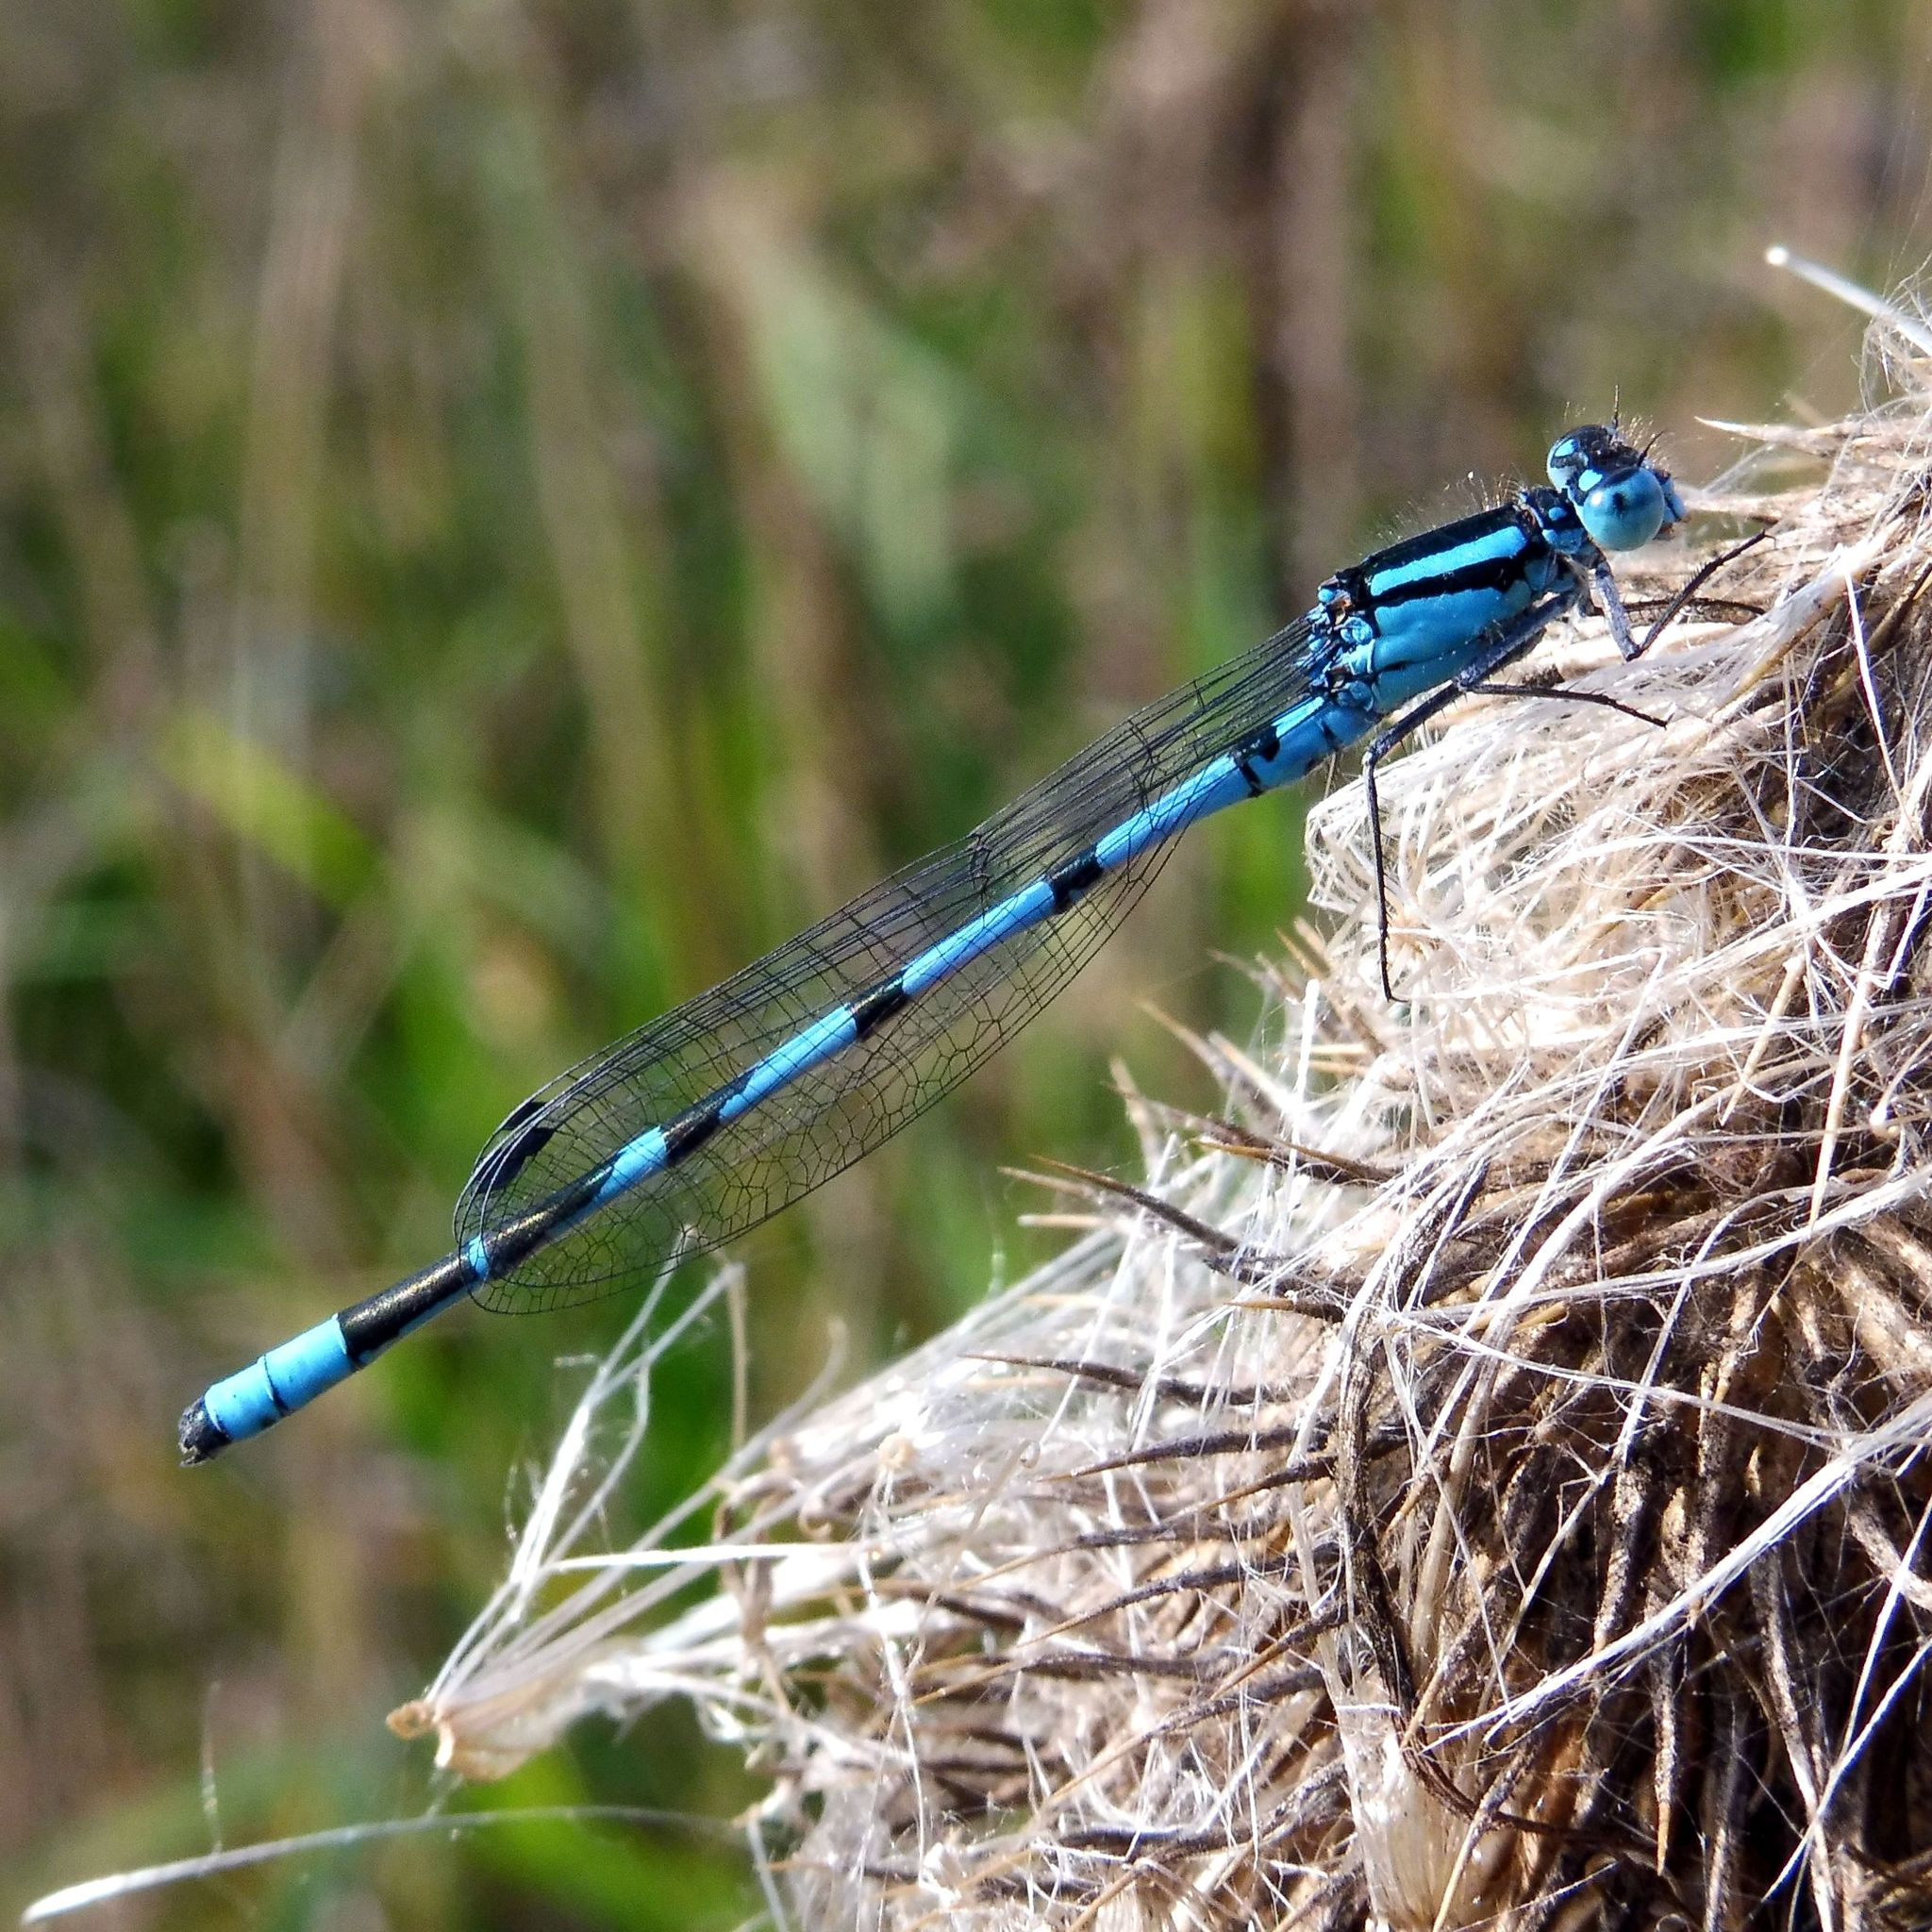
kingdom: Animalia
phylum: Arthropoda
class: Insecta
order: Odonata
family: Coenagrionidae
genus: Enallagma
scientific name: Enallagma cyathigerum
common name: Common blue damselfly
